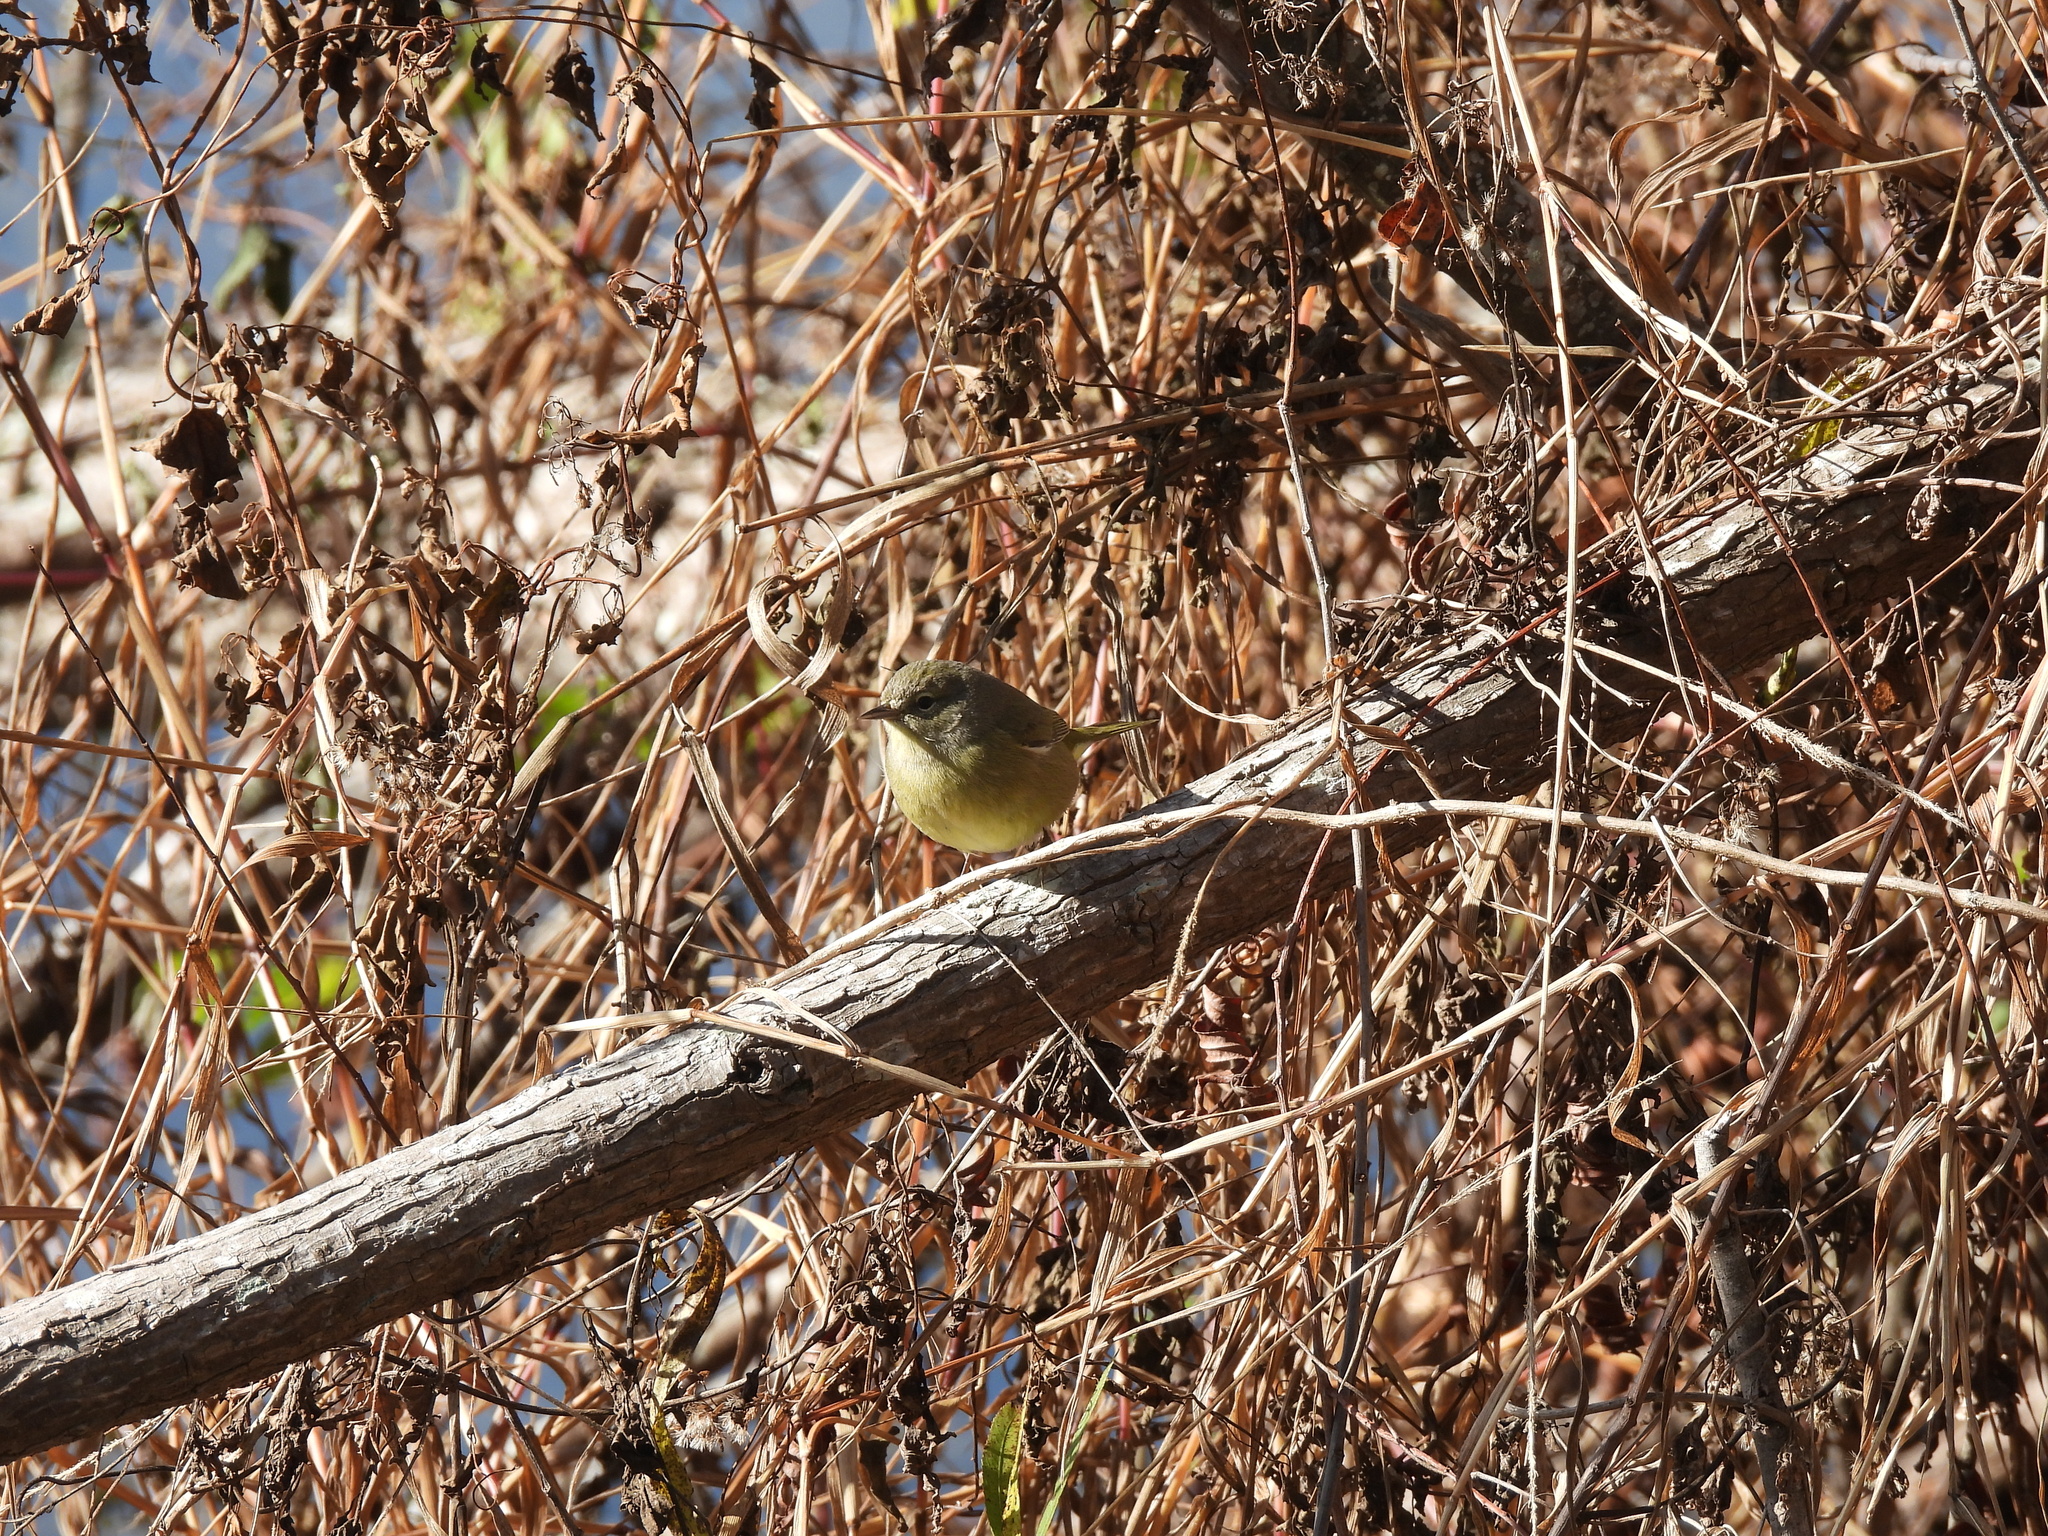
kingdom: Animalia
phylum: Chordata
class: Aves
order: Passeriformes
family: Parulidae
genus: Leiothlypis
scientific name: Leiothlypis celata
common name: Orange-crowned warbler
